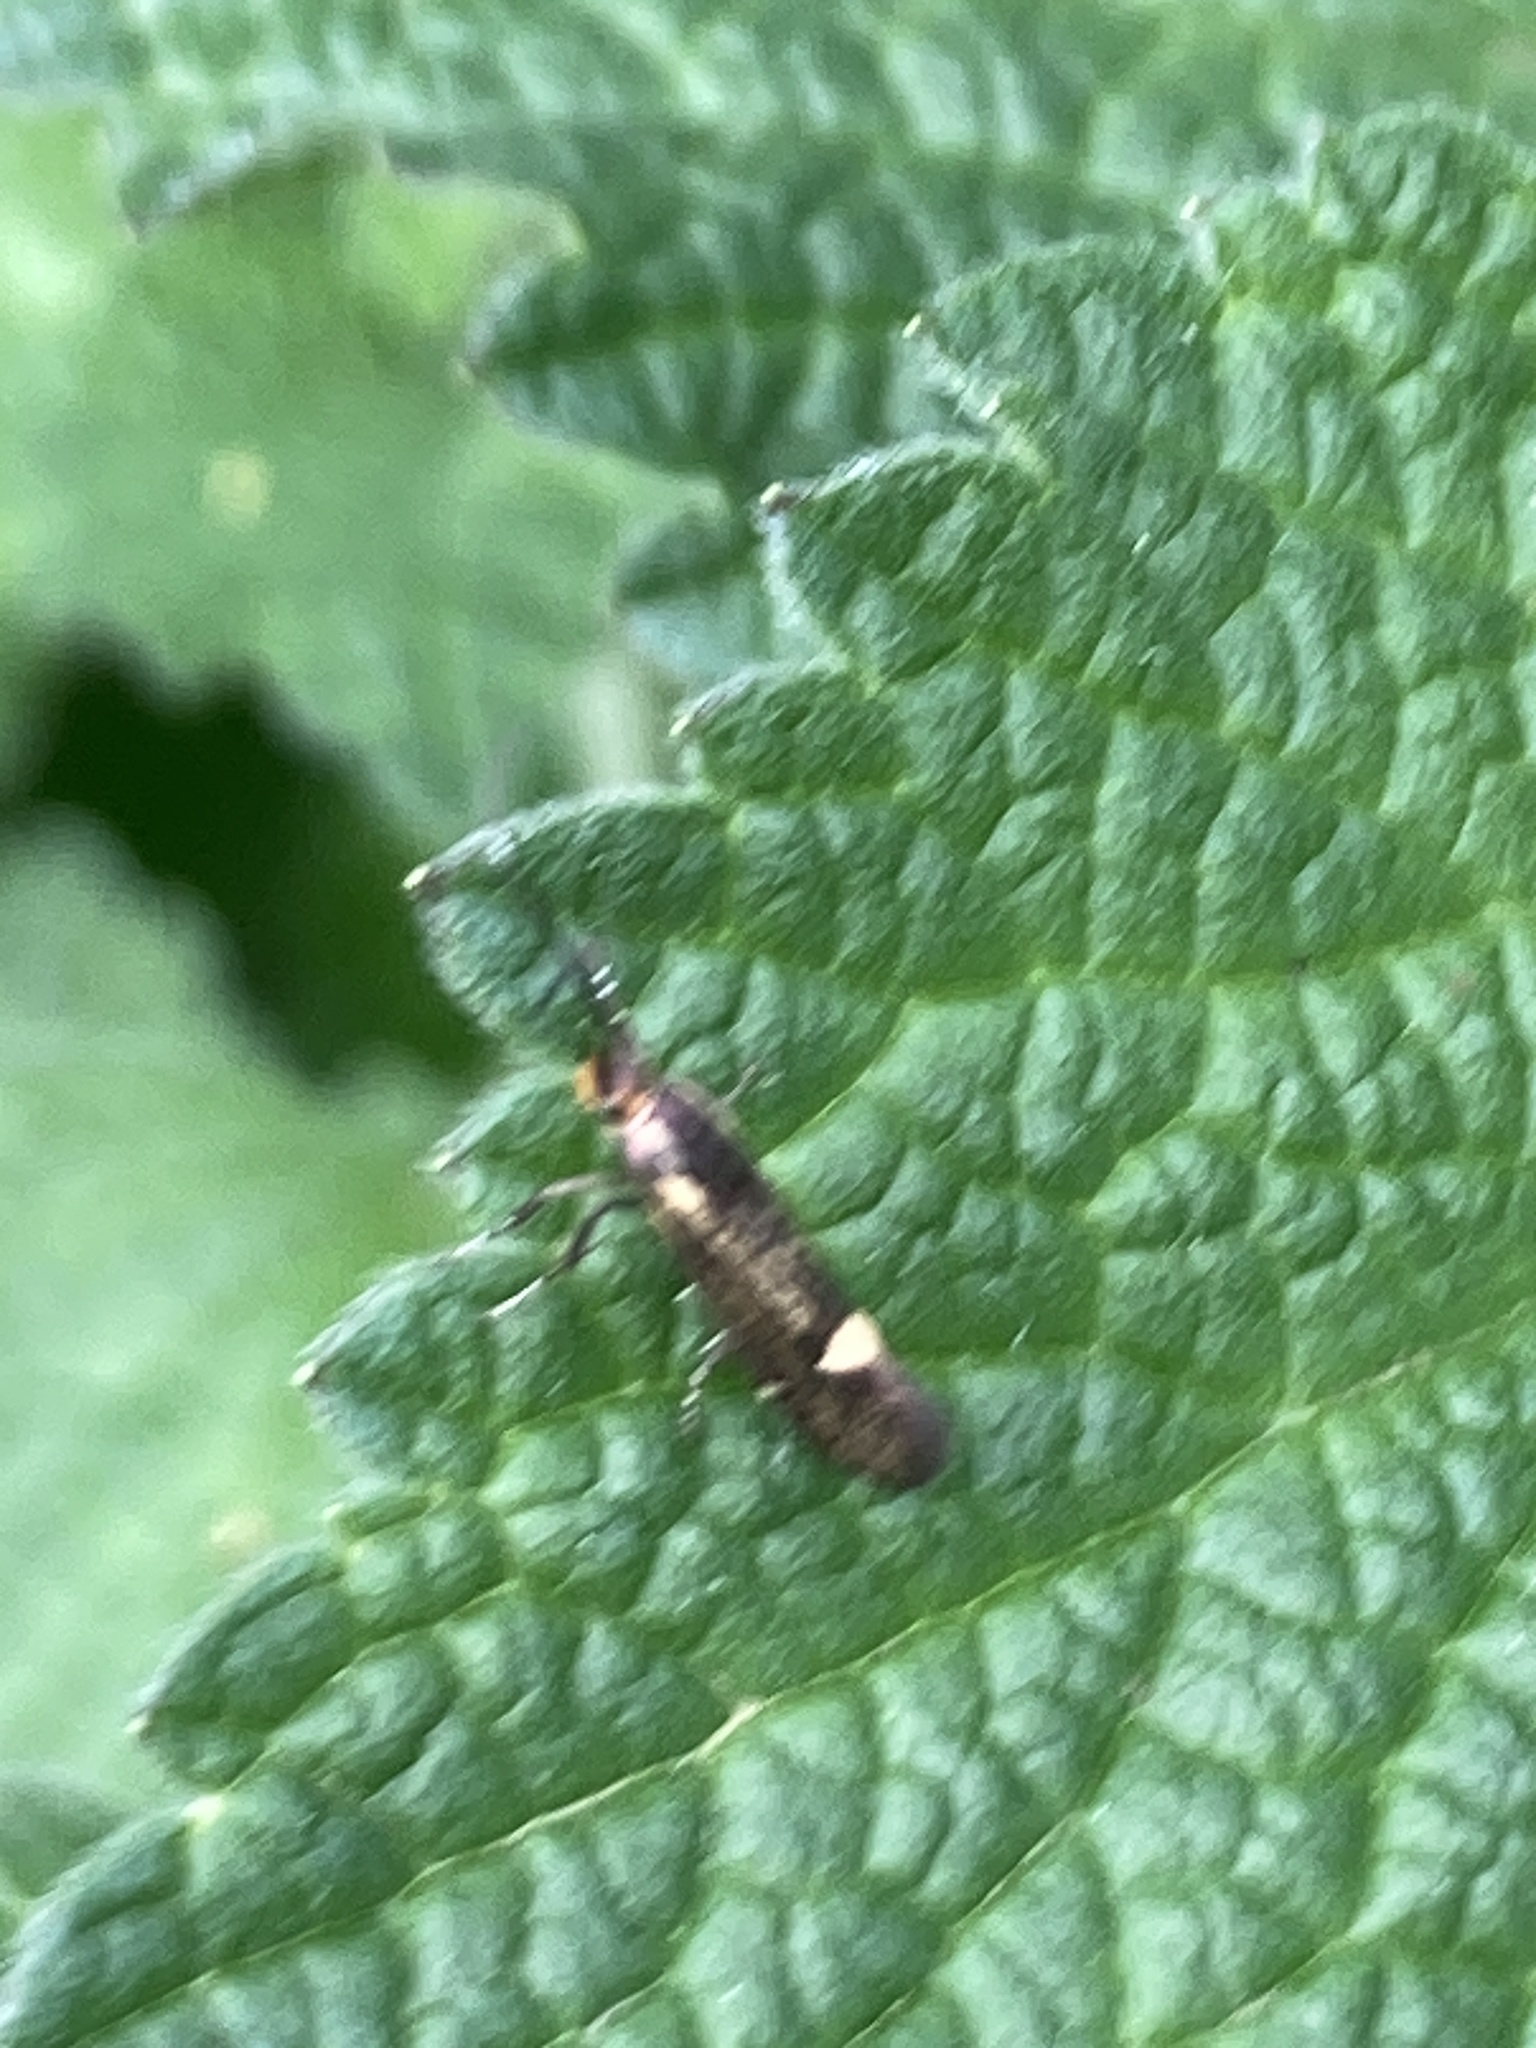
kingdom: Animalia
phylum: Arthropoda
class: Insecta
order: Lepidoptera
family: Oecophoridae
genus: Dafa
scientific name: Dafa Esperia sulphurella
